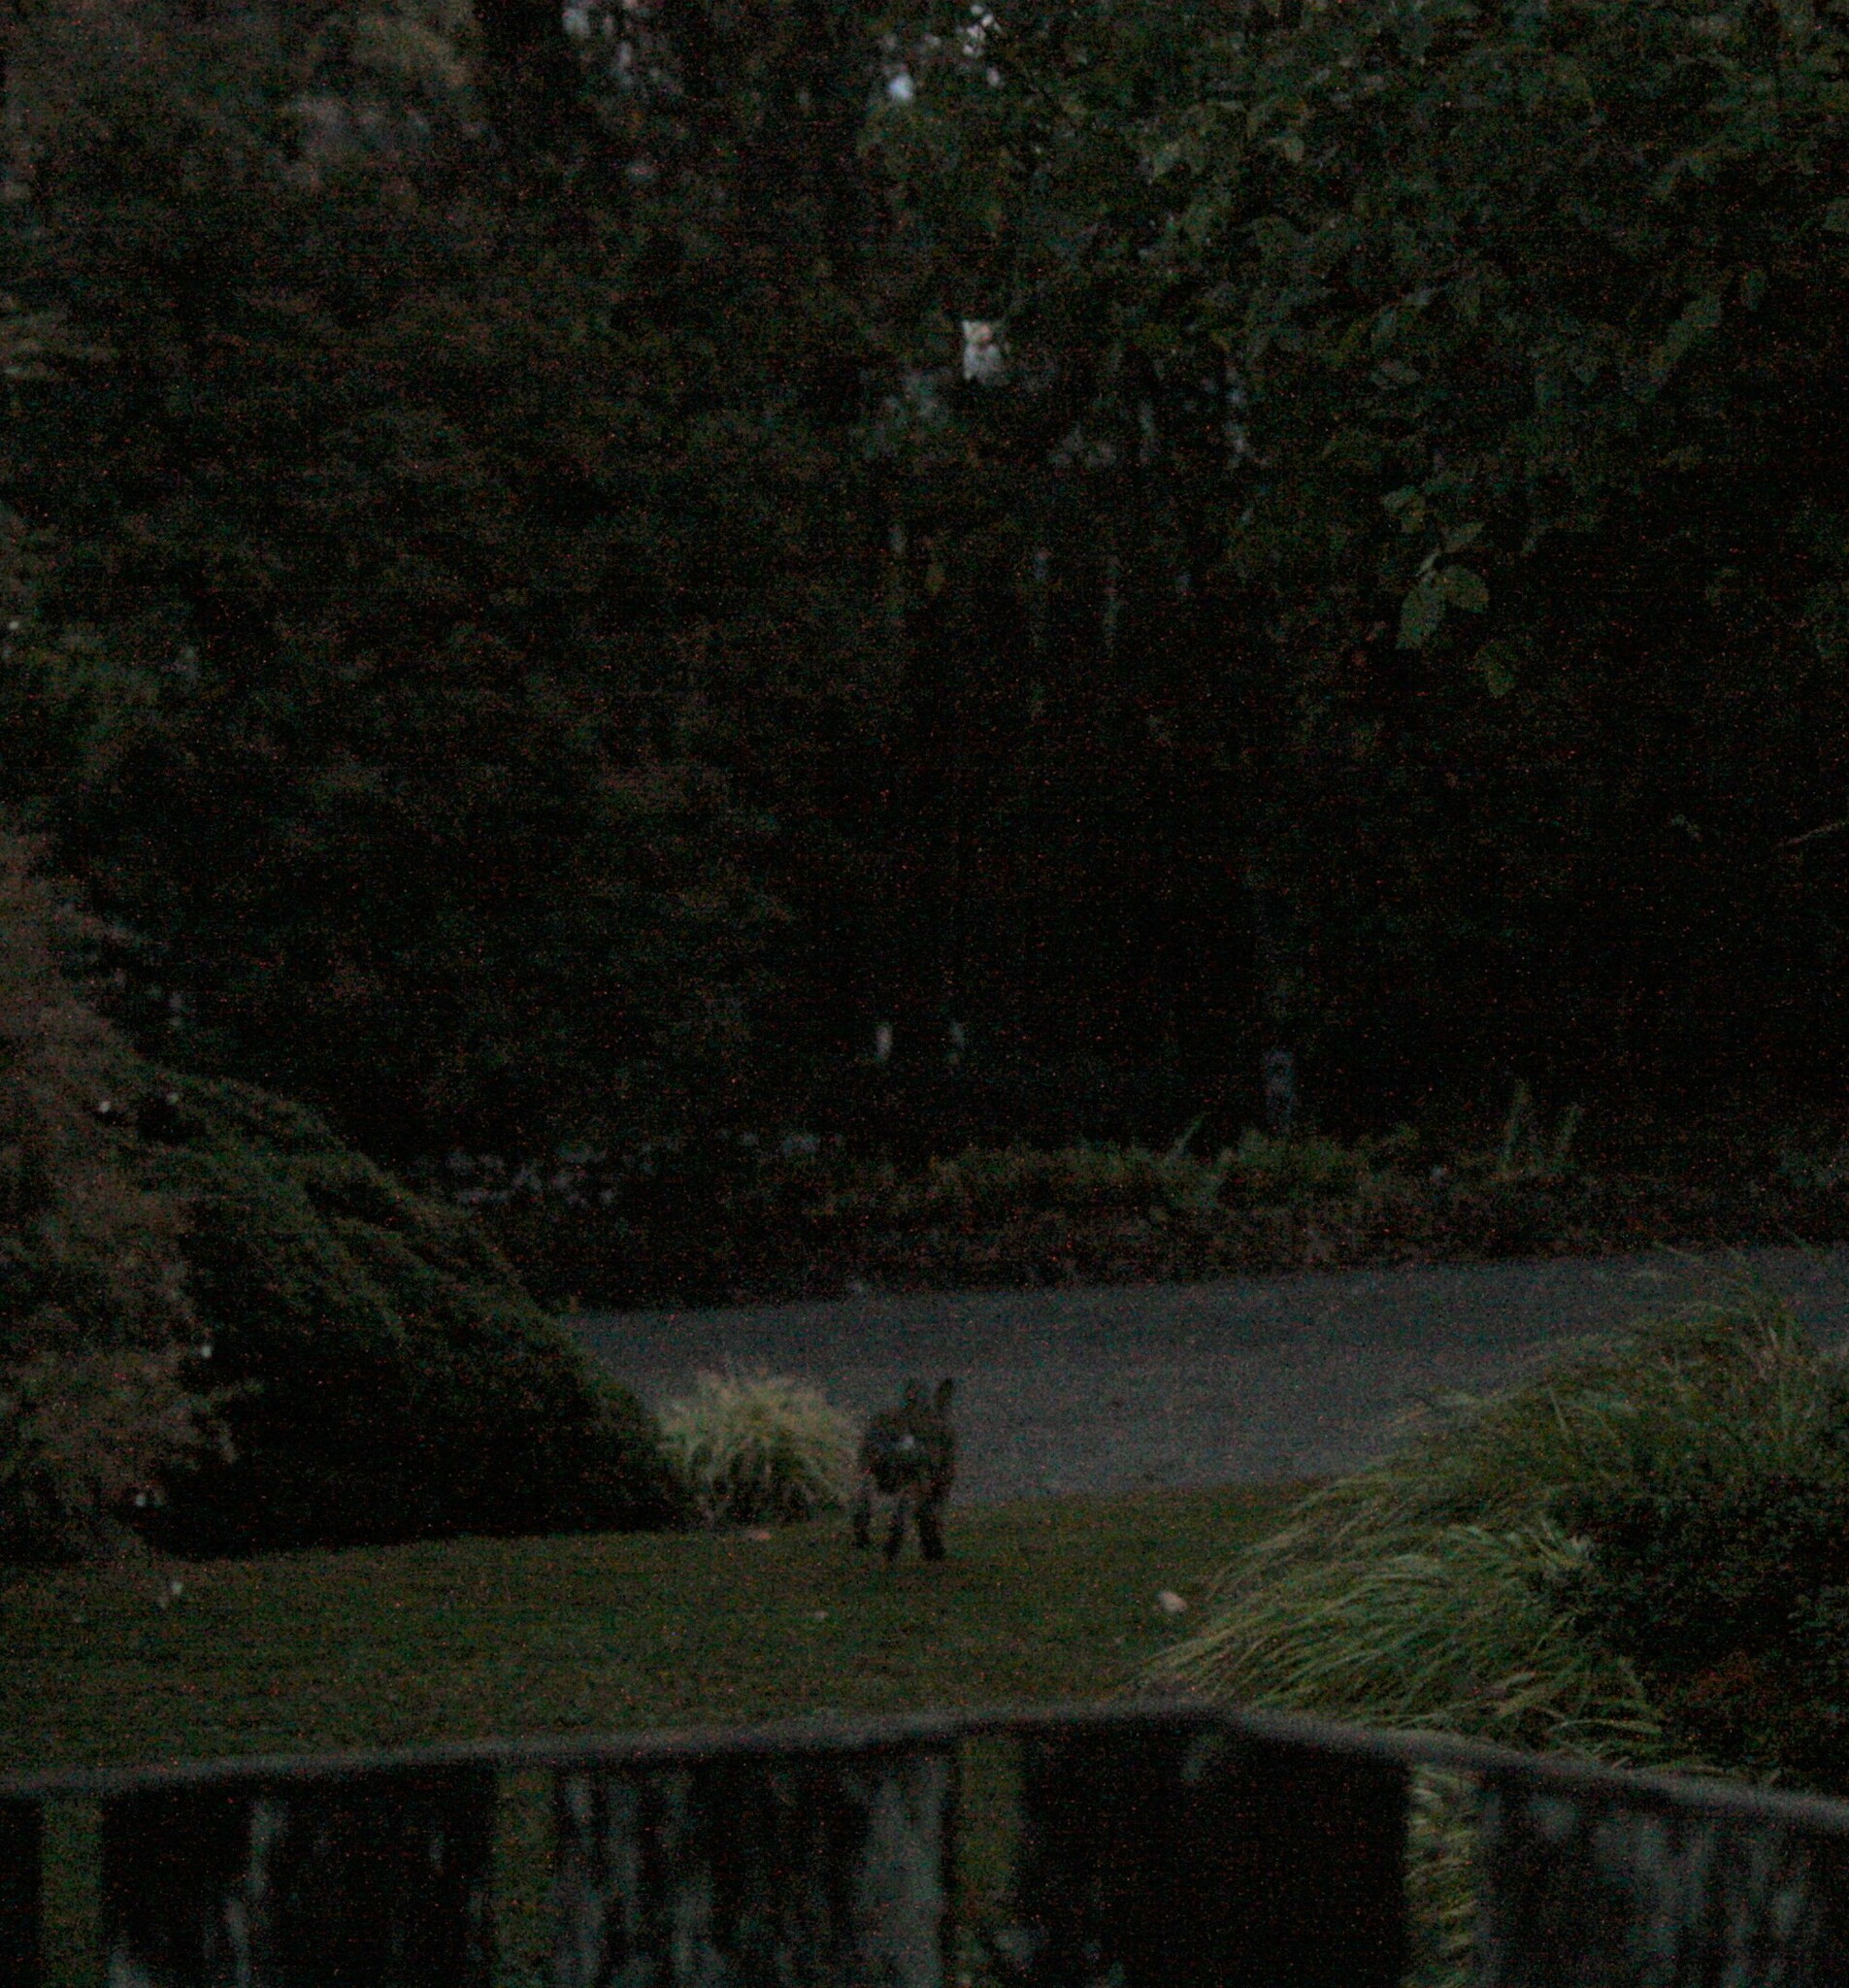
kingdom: Animalia
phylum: Chordata
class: Mammalia
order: Lagomorpha
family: Leporidae
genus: Sylvilagus
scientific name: Sylvilagus floridanus
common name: Eastern cottontail
